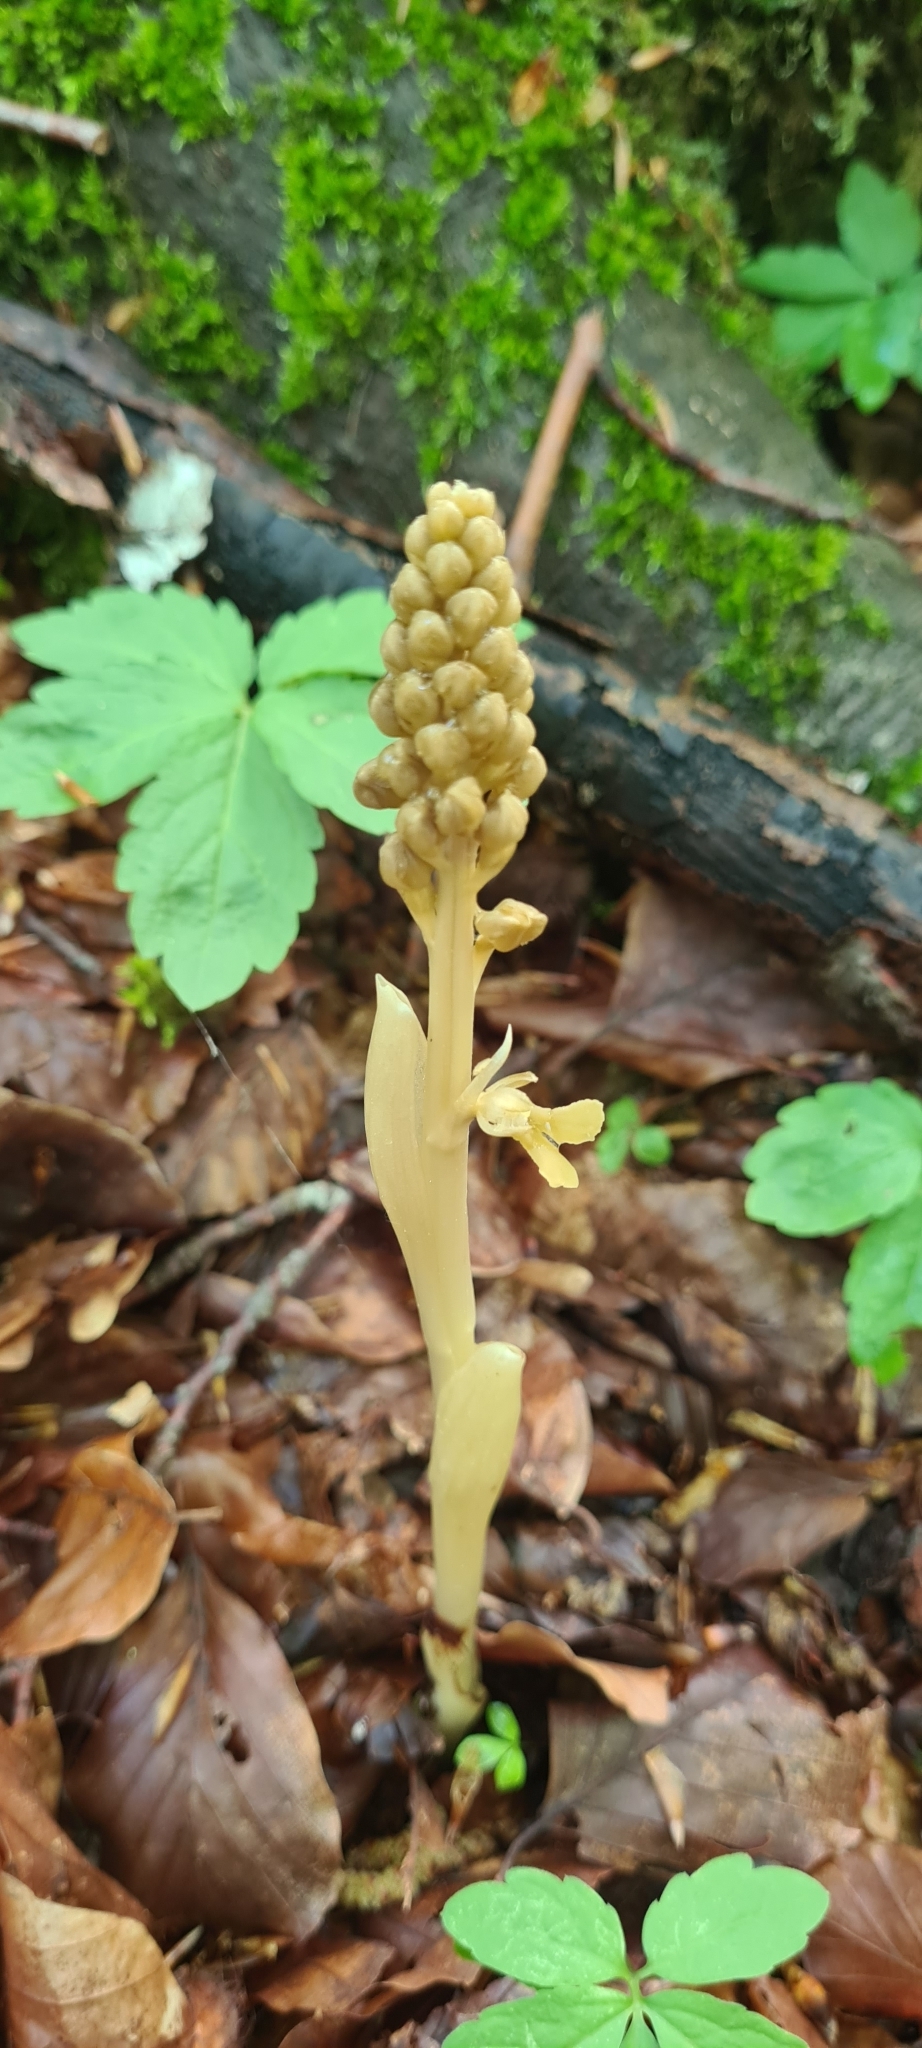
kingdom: Plantae
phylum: Tracheophyta
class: Liliopsida
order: Asparagales
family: Orchidaceae
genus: Neottia
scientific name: Neottia nidus-avis
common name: Bird's-nest orchid
